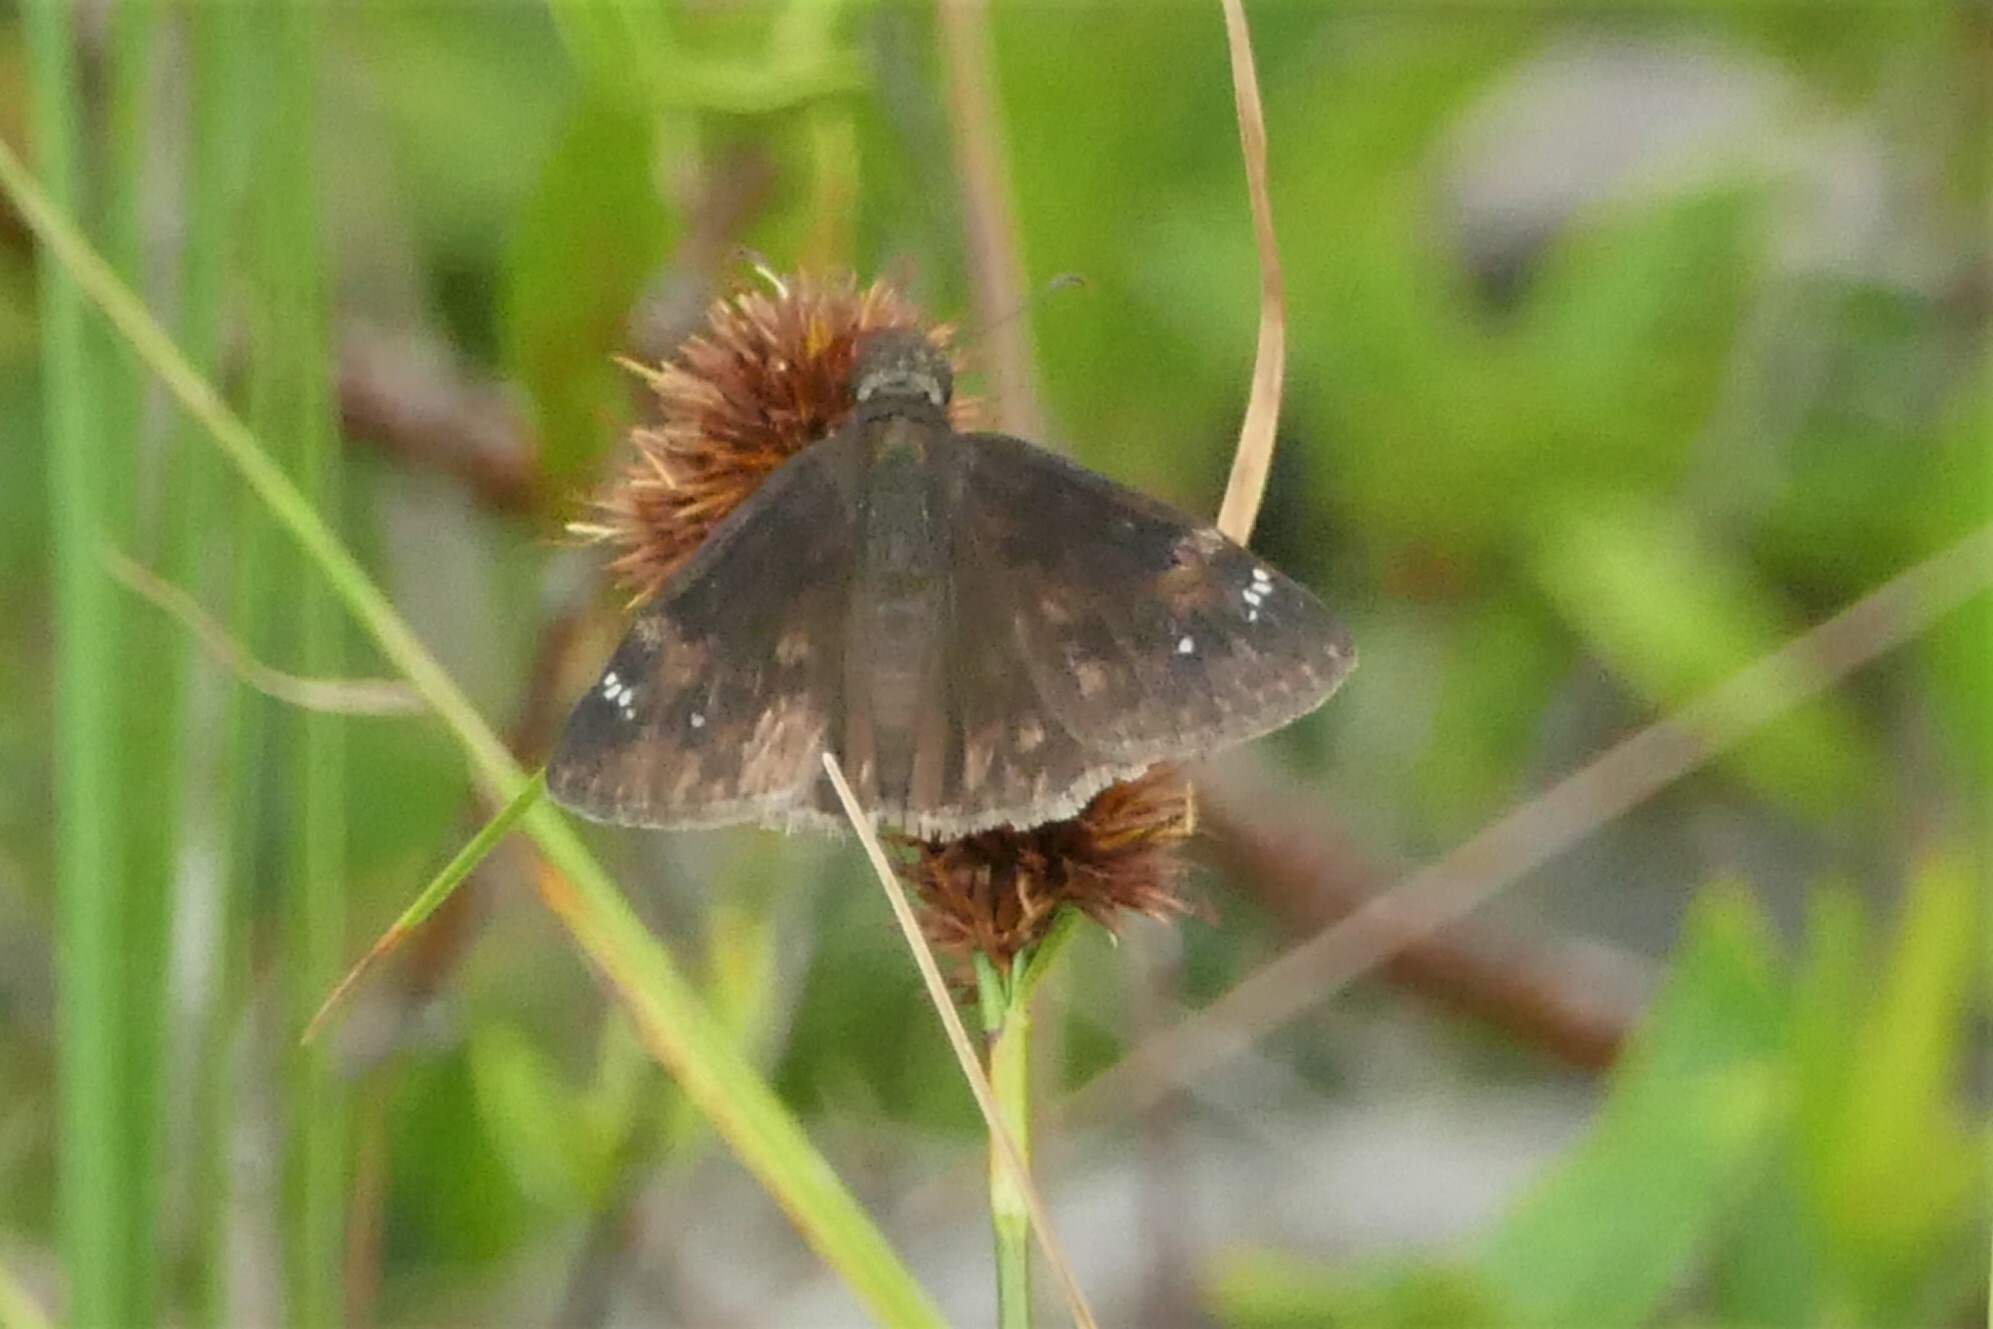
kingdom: Animalia
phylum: Arthropoda
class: Insecta
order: Lepidoptera
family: Hesperiidae
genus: Erynnis
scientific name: Erynnis zarucco
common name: Zarucco duskywing
